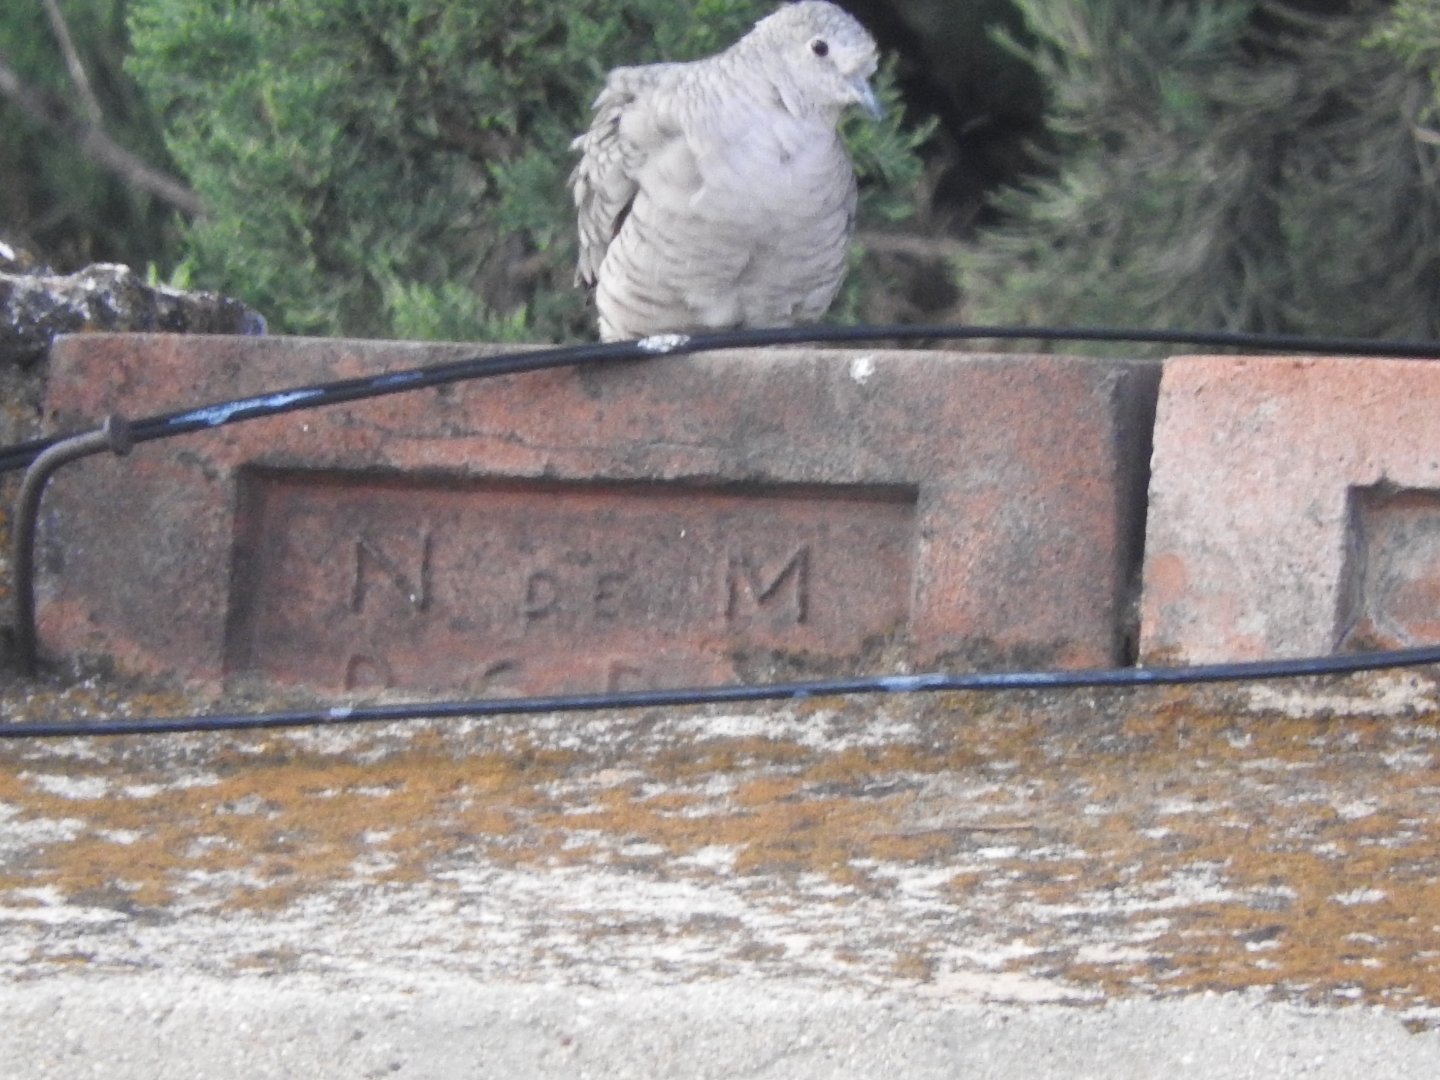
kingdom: Animalia
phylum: Chordata
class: Aves
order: Columbiformes
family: Columbidae
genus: Columbina
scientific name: Columbina inca
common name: Inca dove
